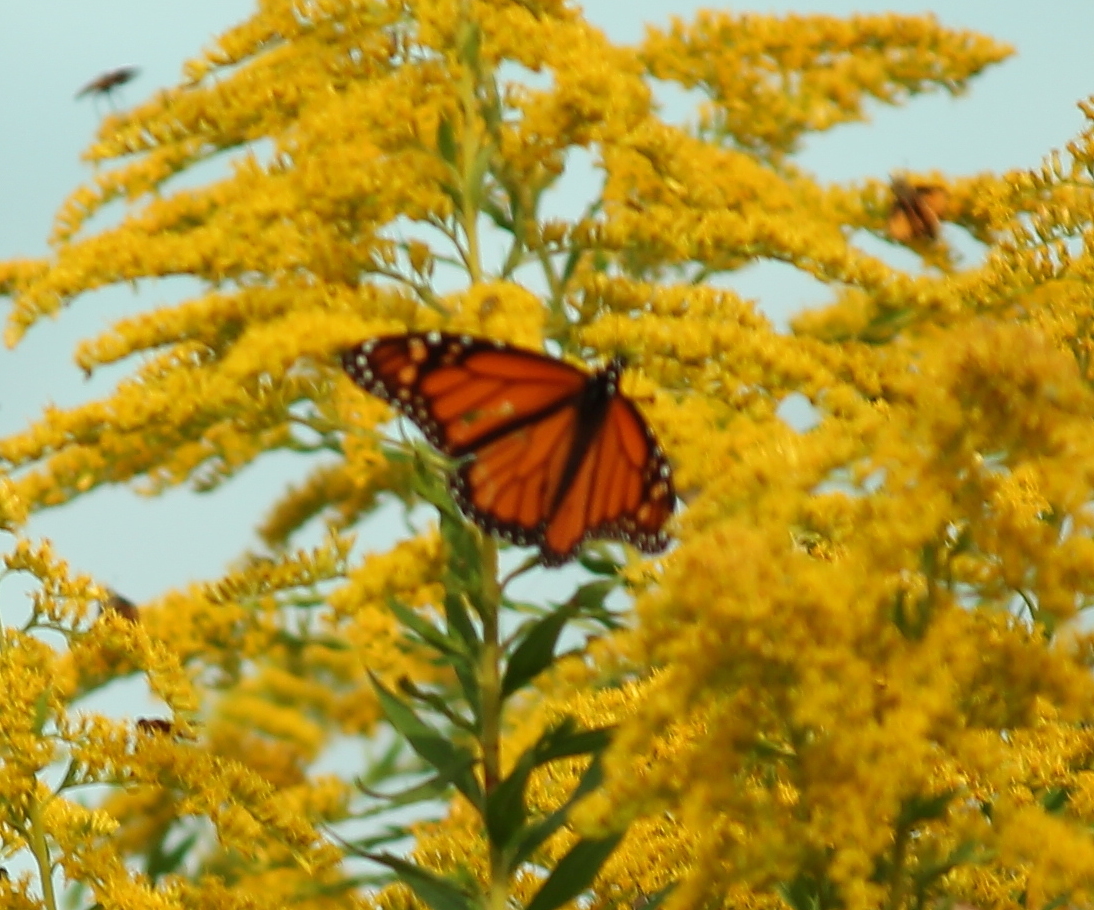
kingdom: Animalia
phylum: Arthropoda
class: Insecta
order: Lepidoptera
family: Nymphalidae
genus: Danaus
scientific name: Danaus plexippus
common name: Monarch
